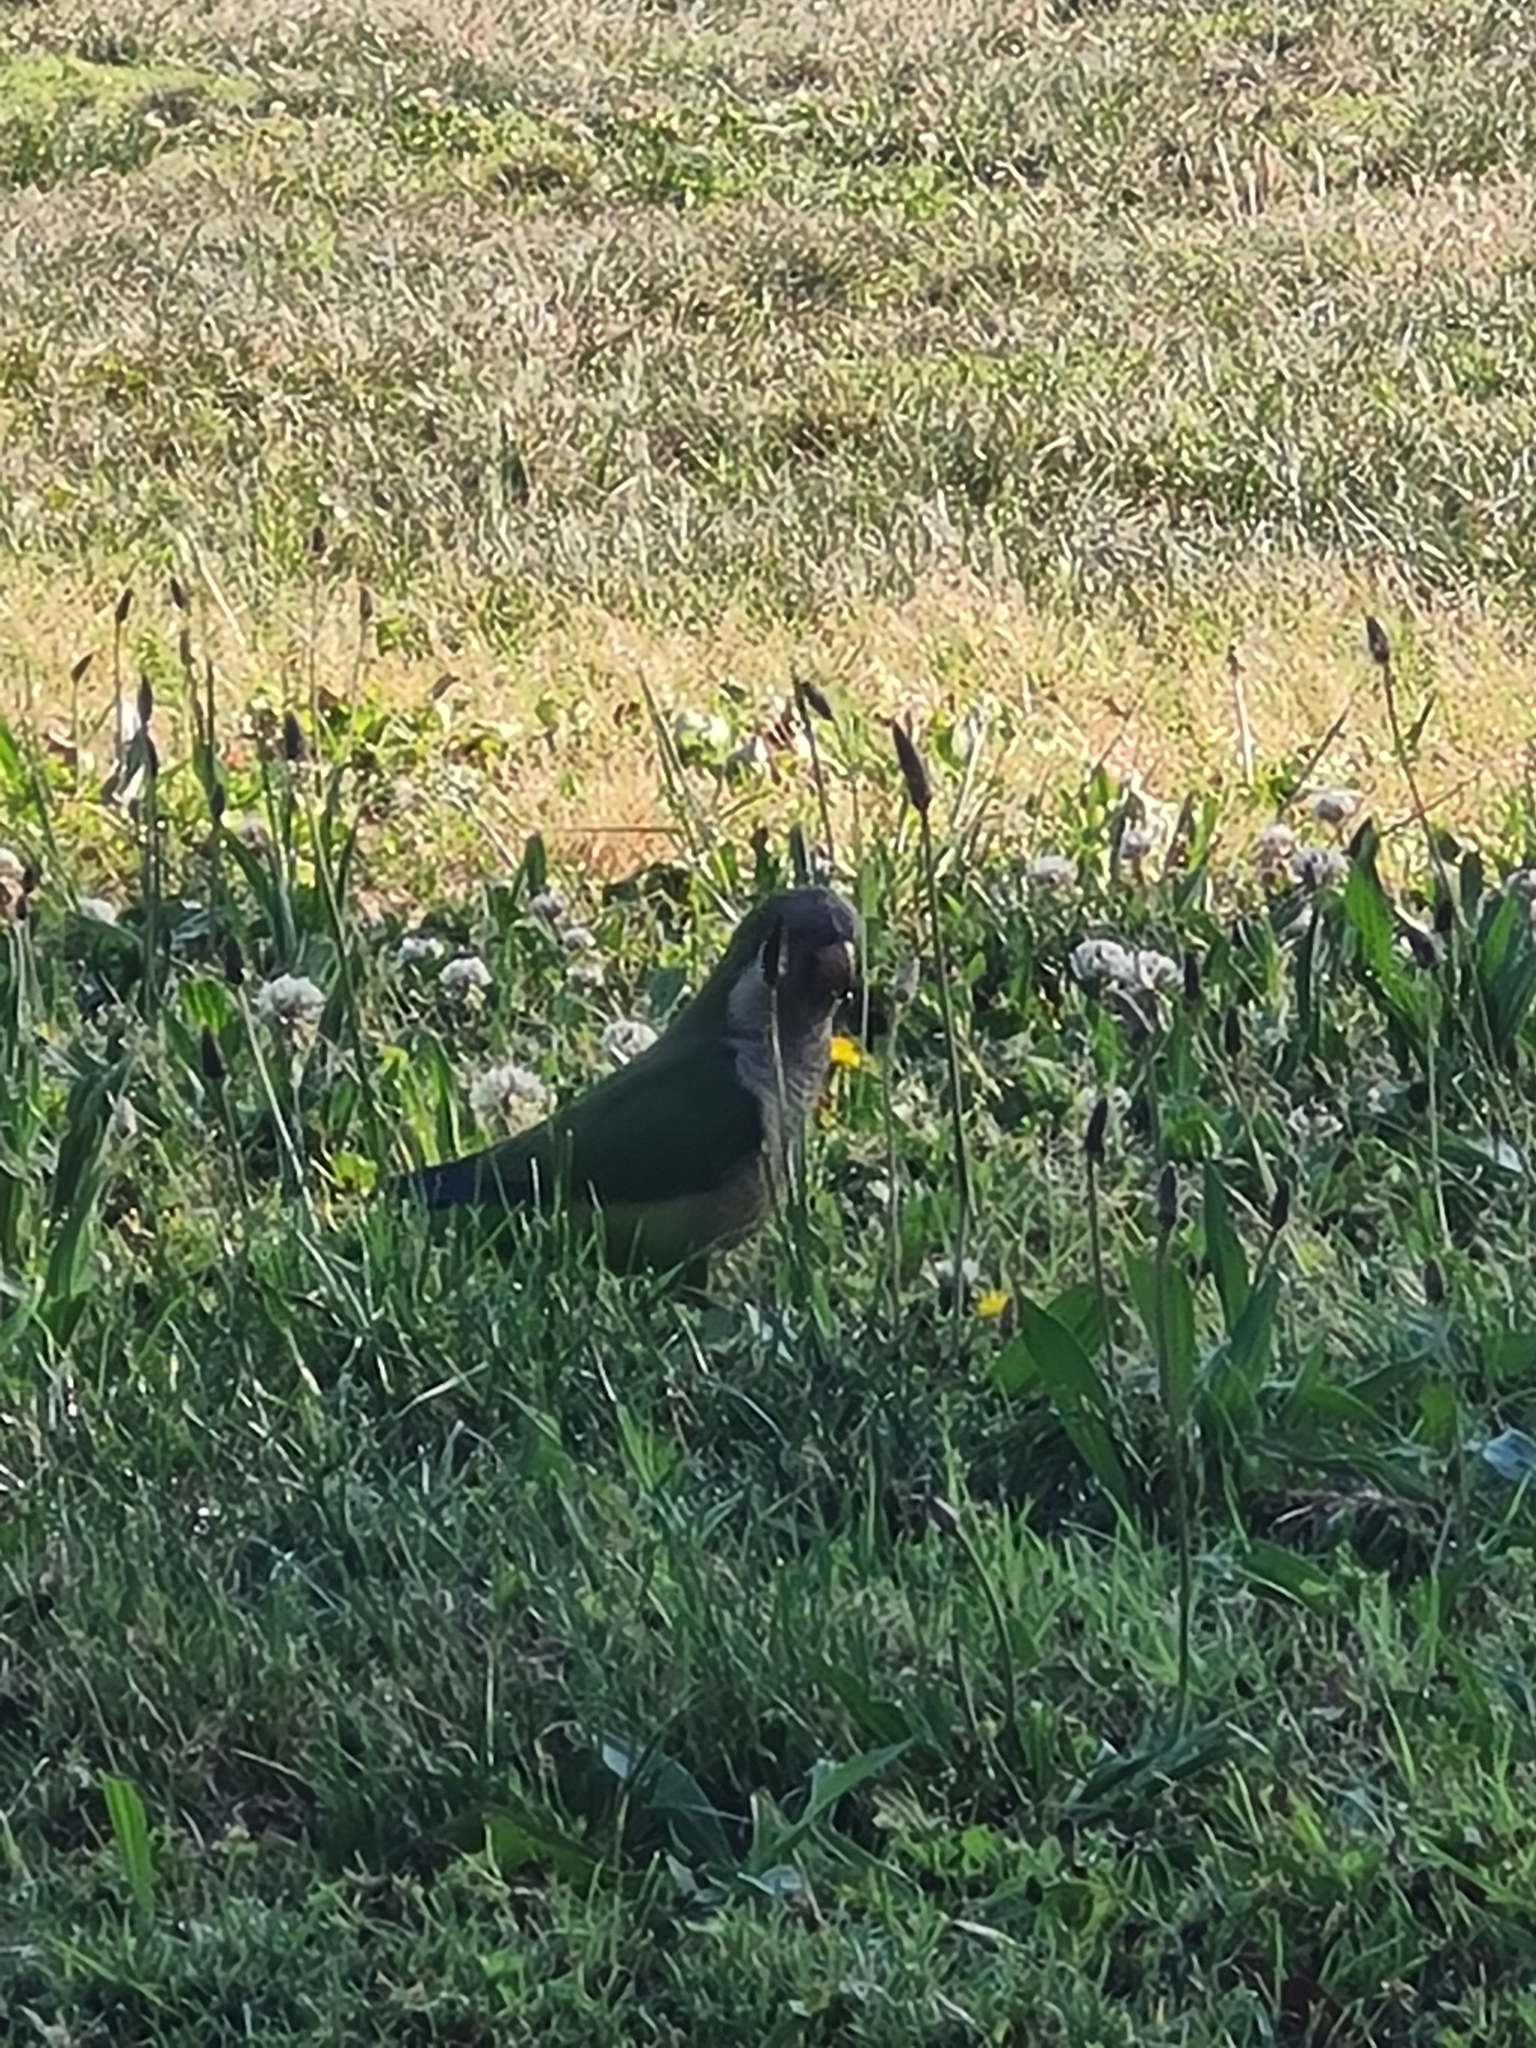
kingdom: Animalia
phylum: Chordata
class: Aves
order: Psittaciformes
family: Psittacidae
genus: Myiopsitta
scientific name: Myiopsitta monachus
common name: Monk parakeet
